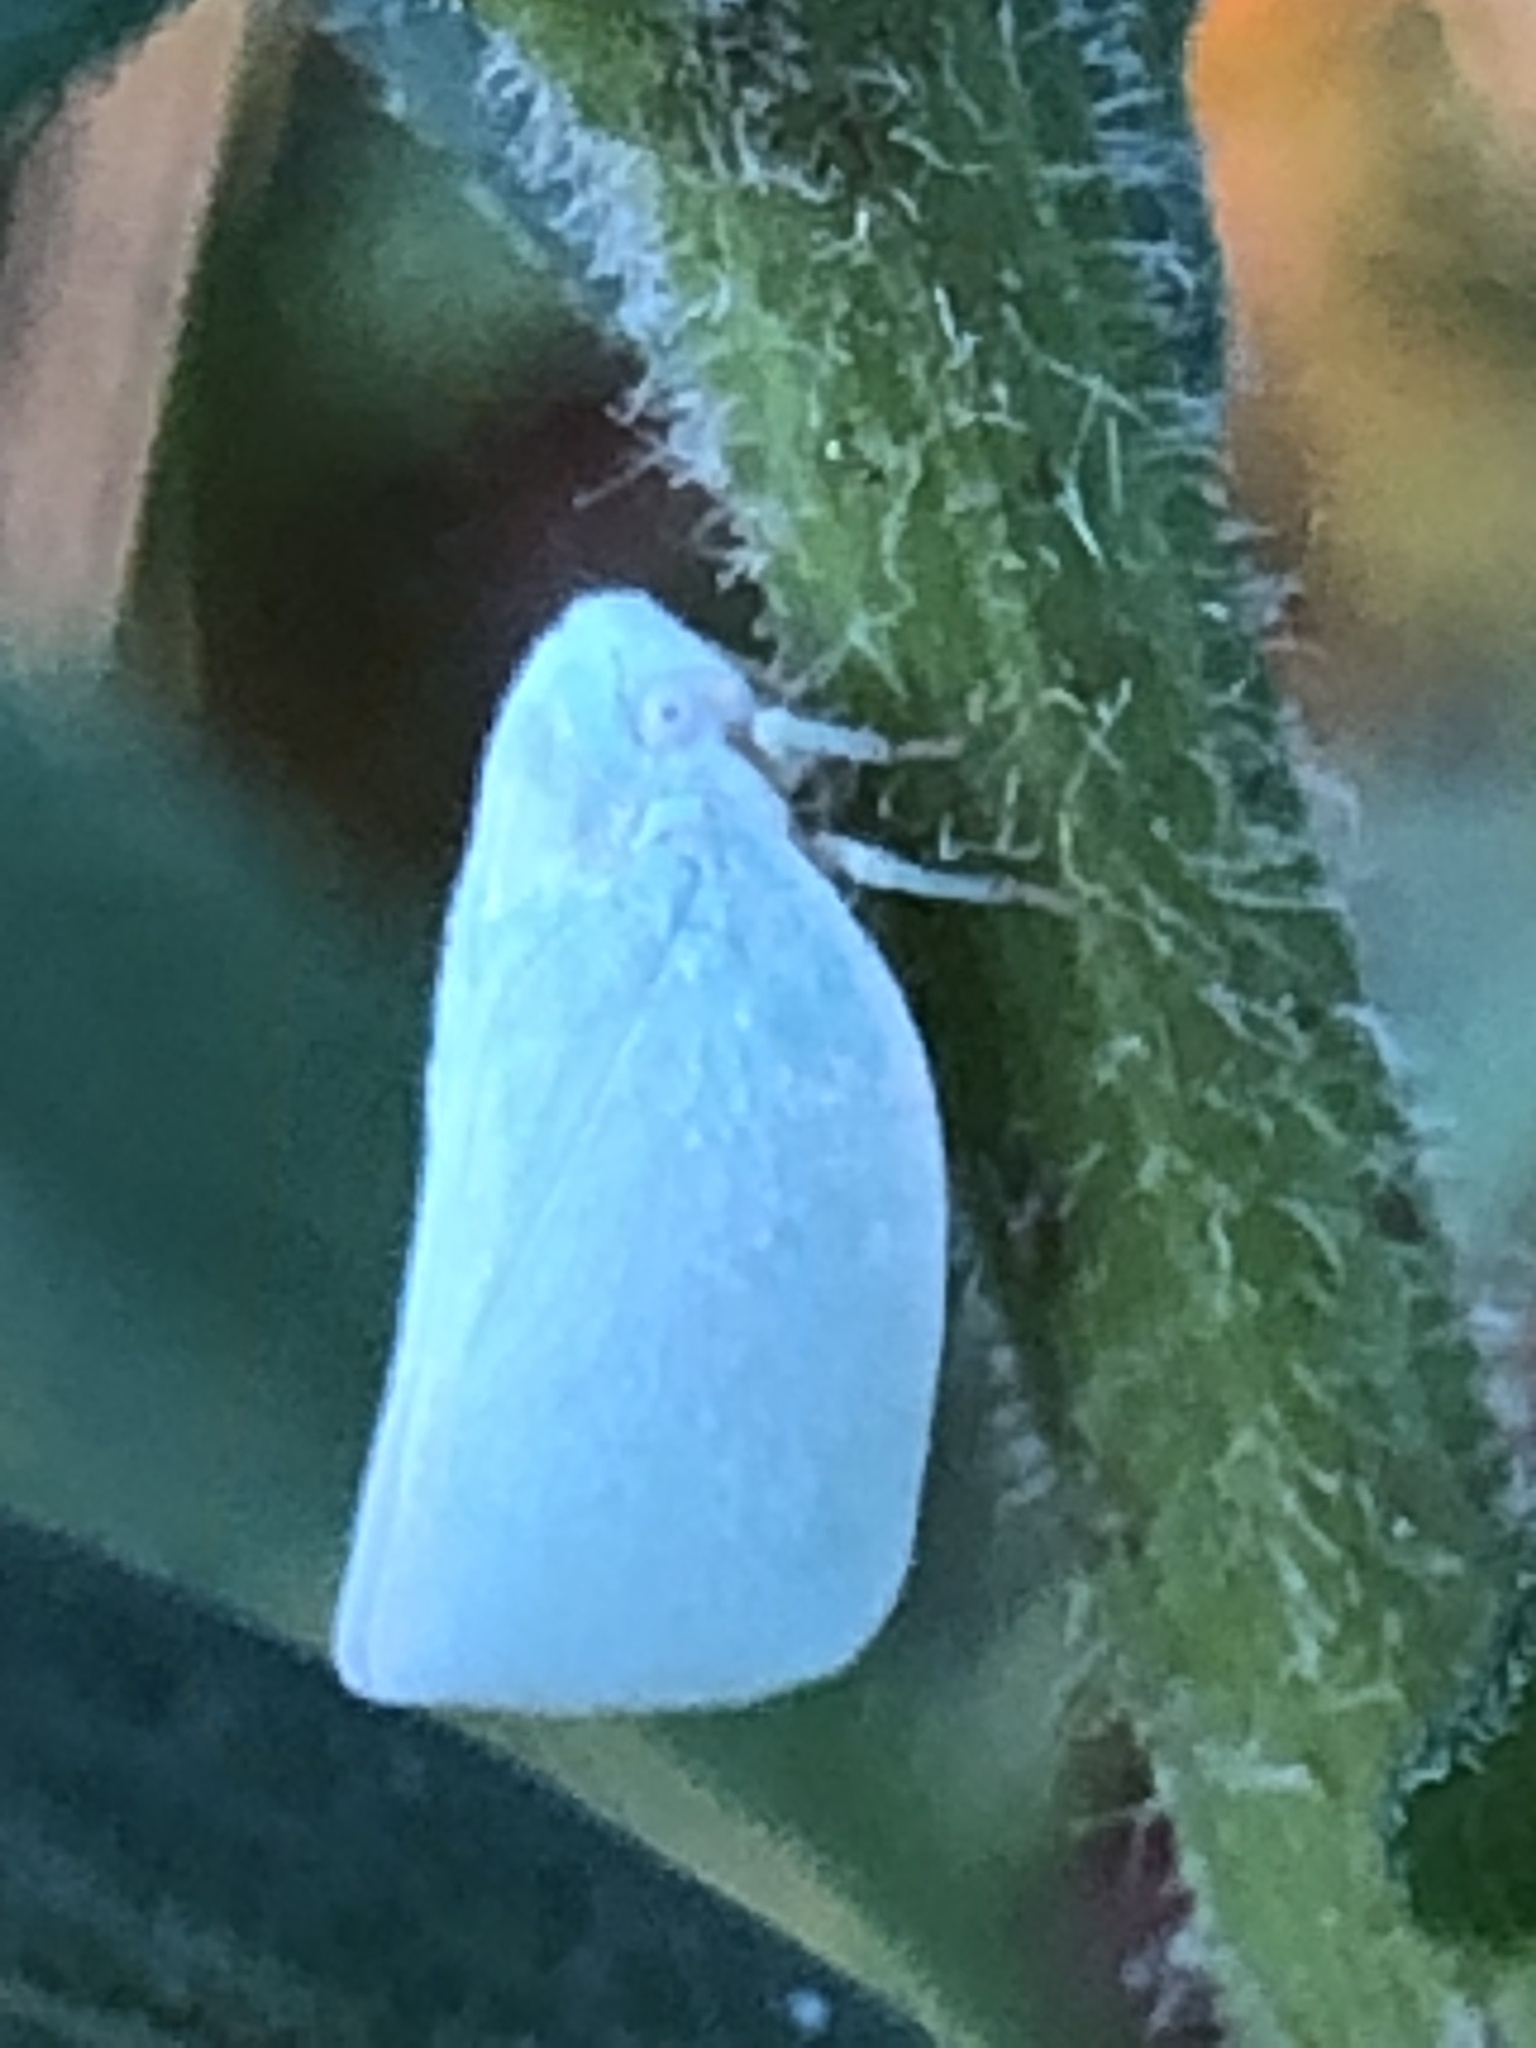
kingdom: Animalia
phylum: Arthropoda
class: Insecta
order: Hemiptera
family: Flatidae
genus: Flatormenis
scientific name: Flatormenis proxima
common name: Northern flatid planthopper
